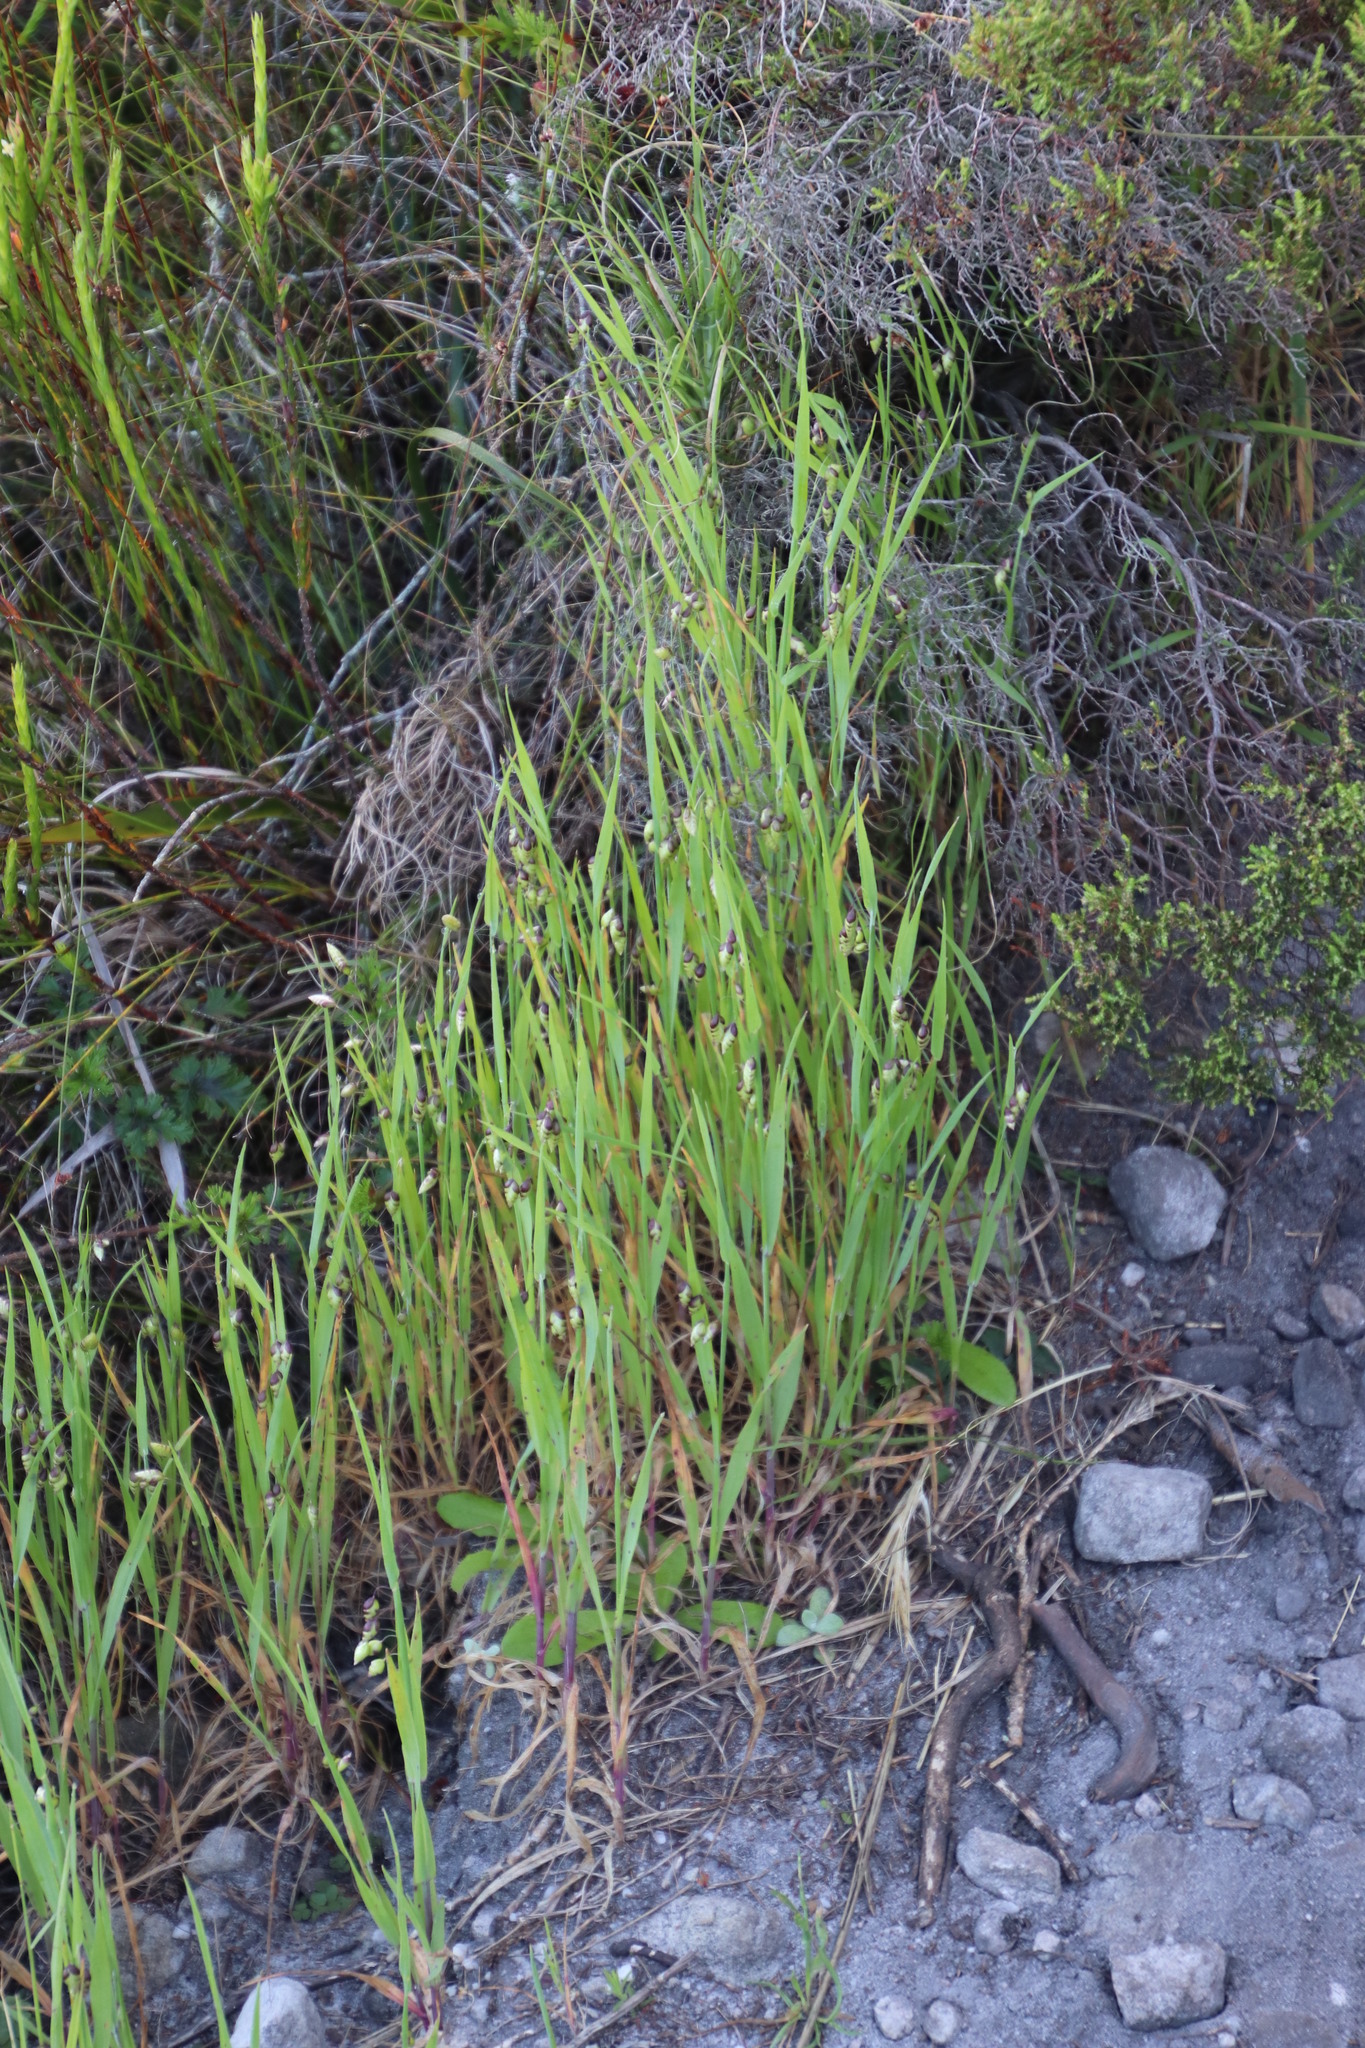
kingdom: Plantae
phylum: Tracheophyta
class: Liliopsida
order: Poales
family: Poaceae
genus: Briza
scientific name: Briza maxima
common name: Big quakinggrass
